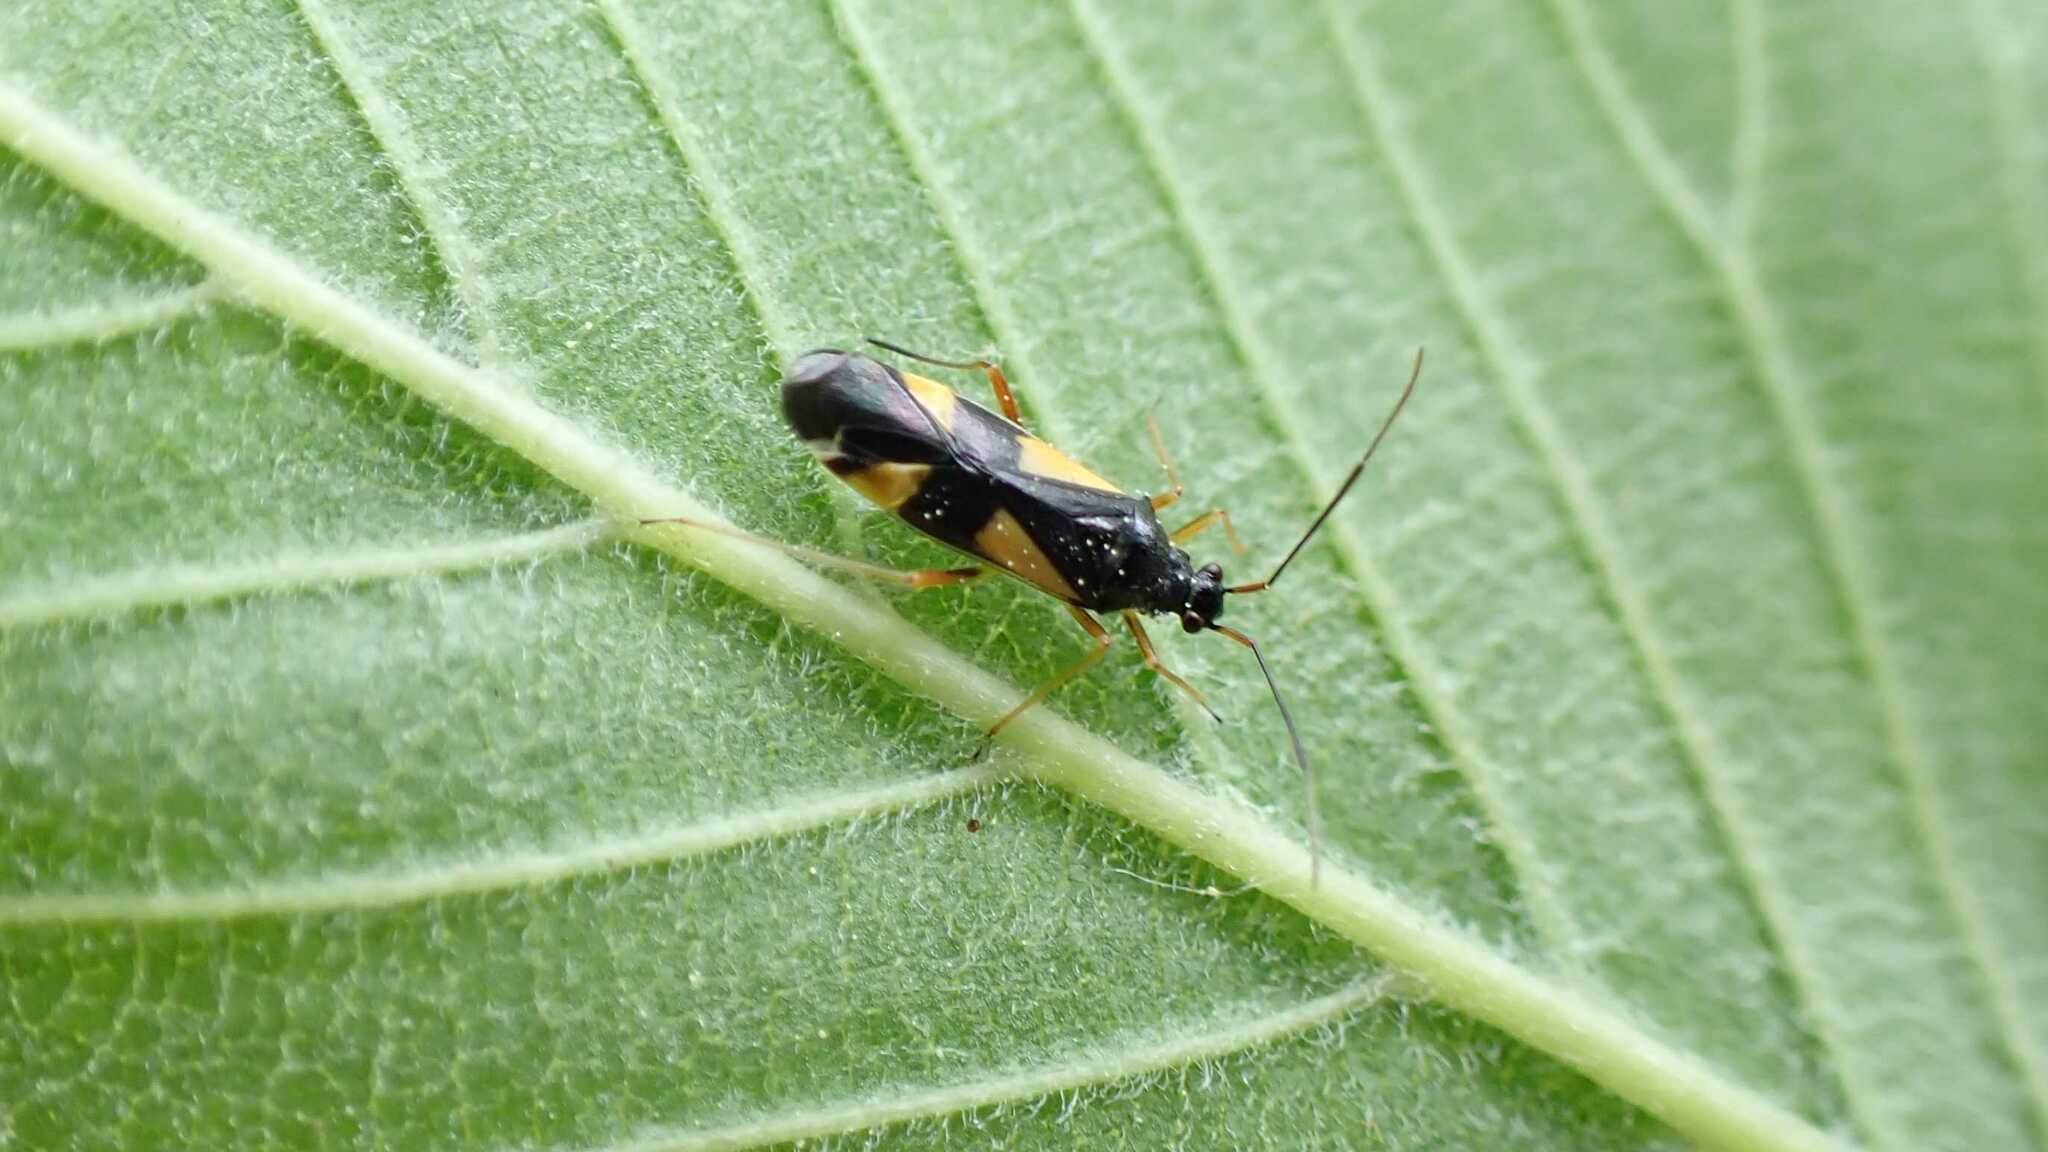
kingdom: Animalia
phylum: Arthropoda
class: Insecta
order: Hemiptera
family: Miridae
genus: Dryophilocoris
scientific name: Dryophilocoris flavoquadrimaculatus
